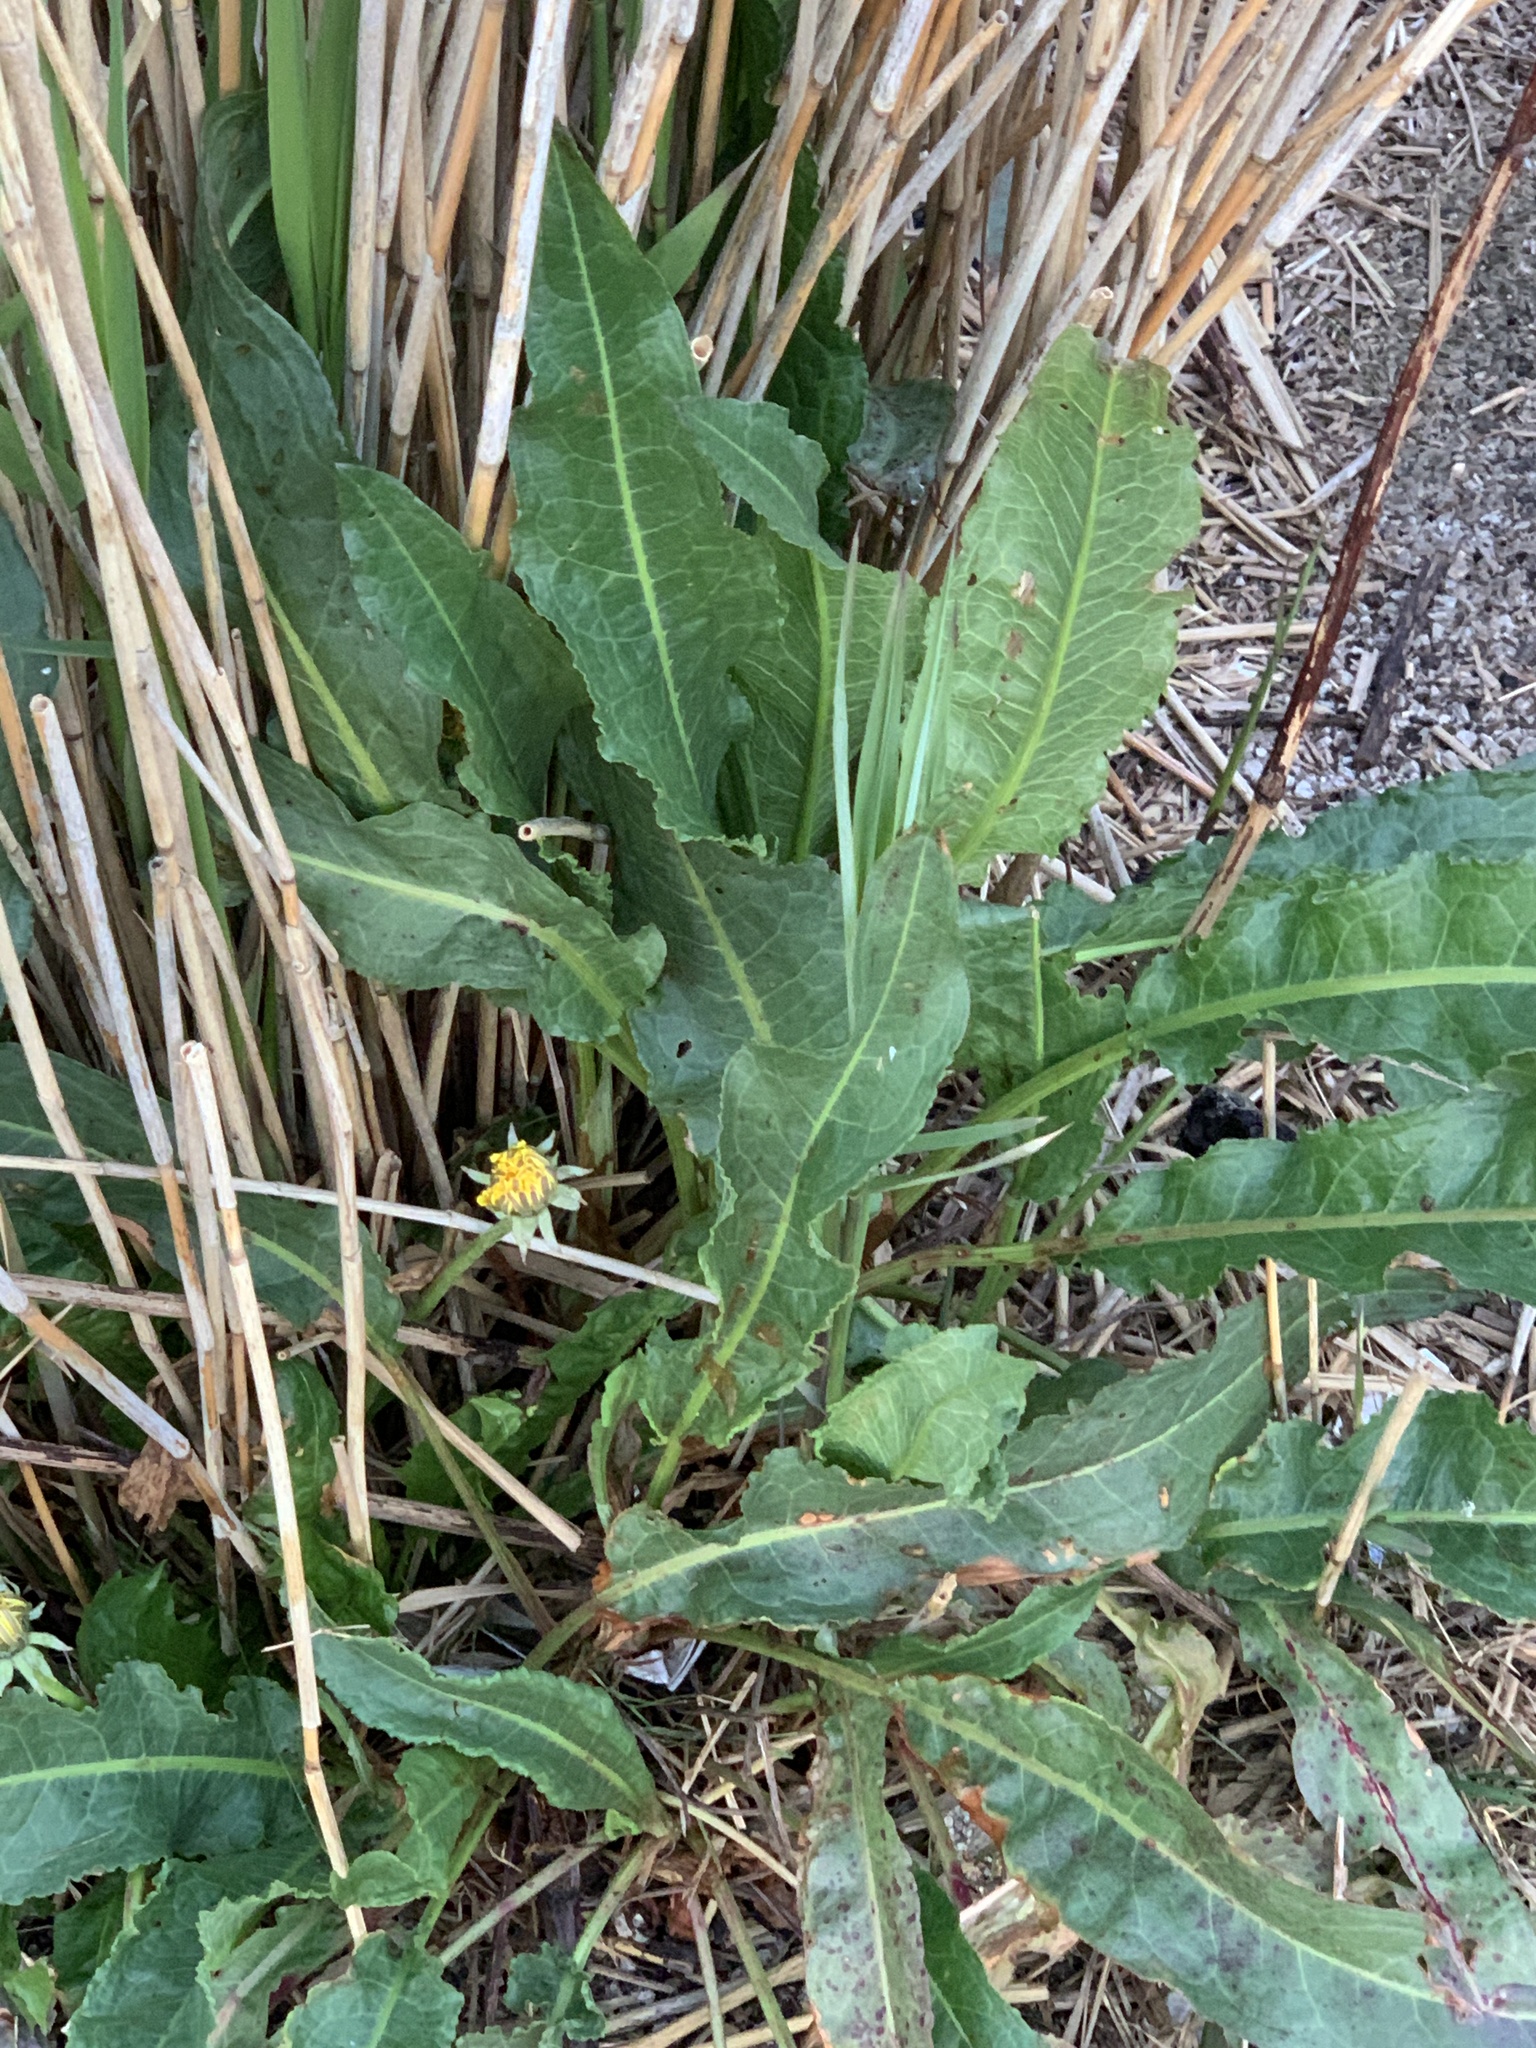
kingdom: Plantae
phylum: Tracheophyta
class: Magnoliopsida
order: Caryophyllales
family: Polygonaceae
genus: Rumex
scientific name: Rumex crispus
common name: Curled dock
